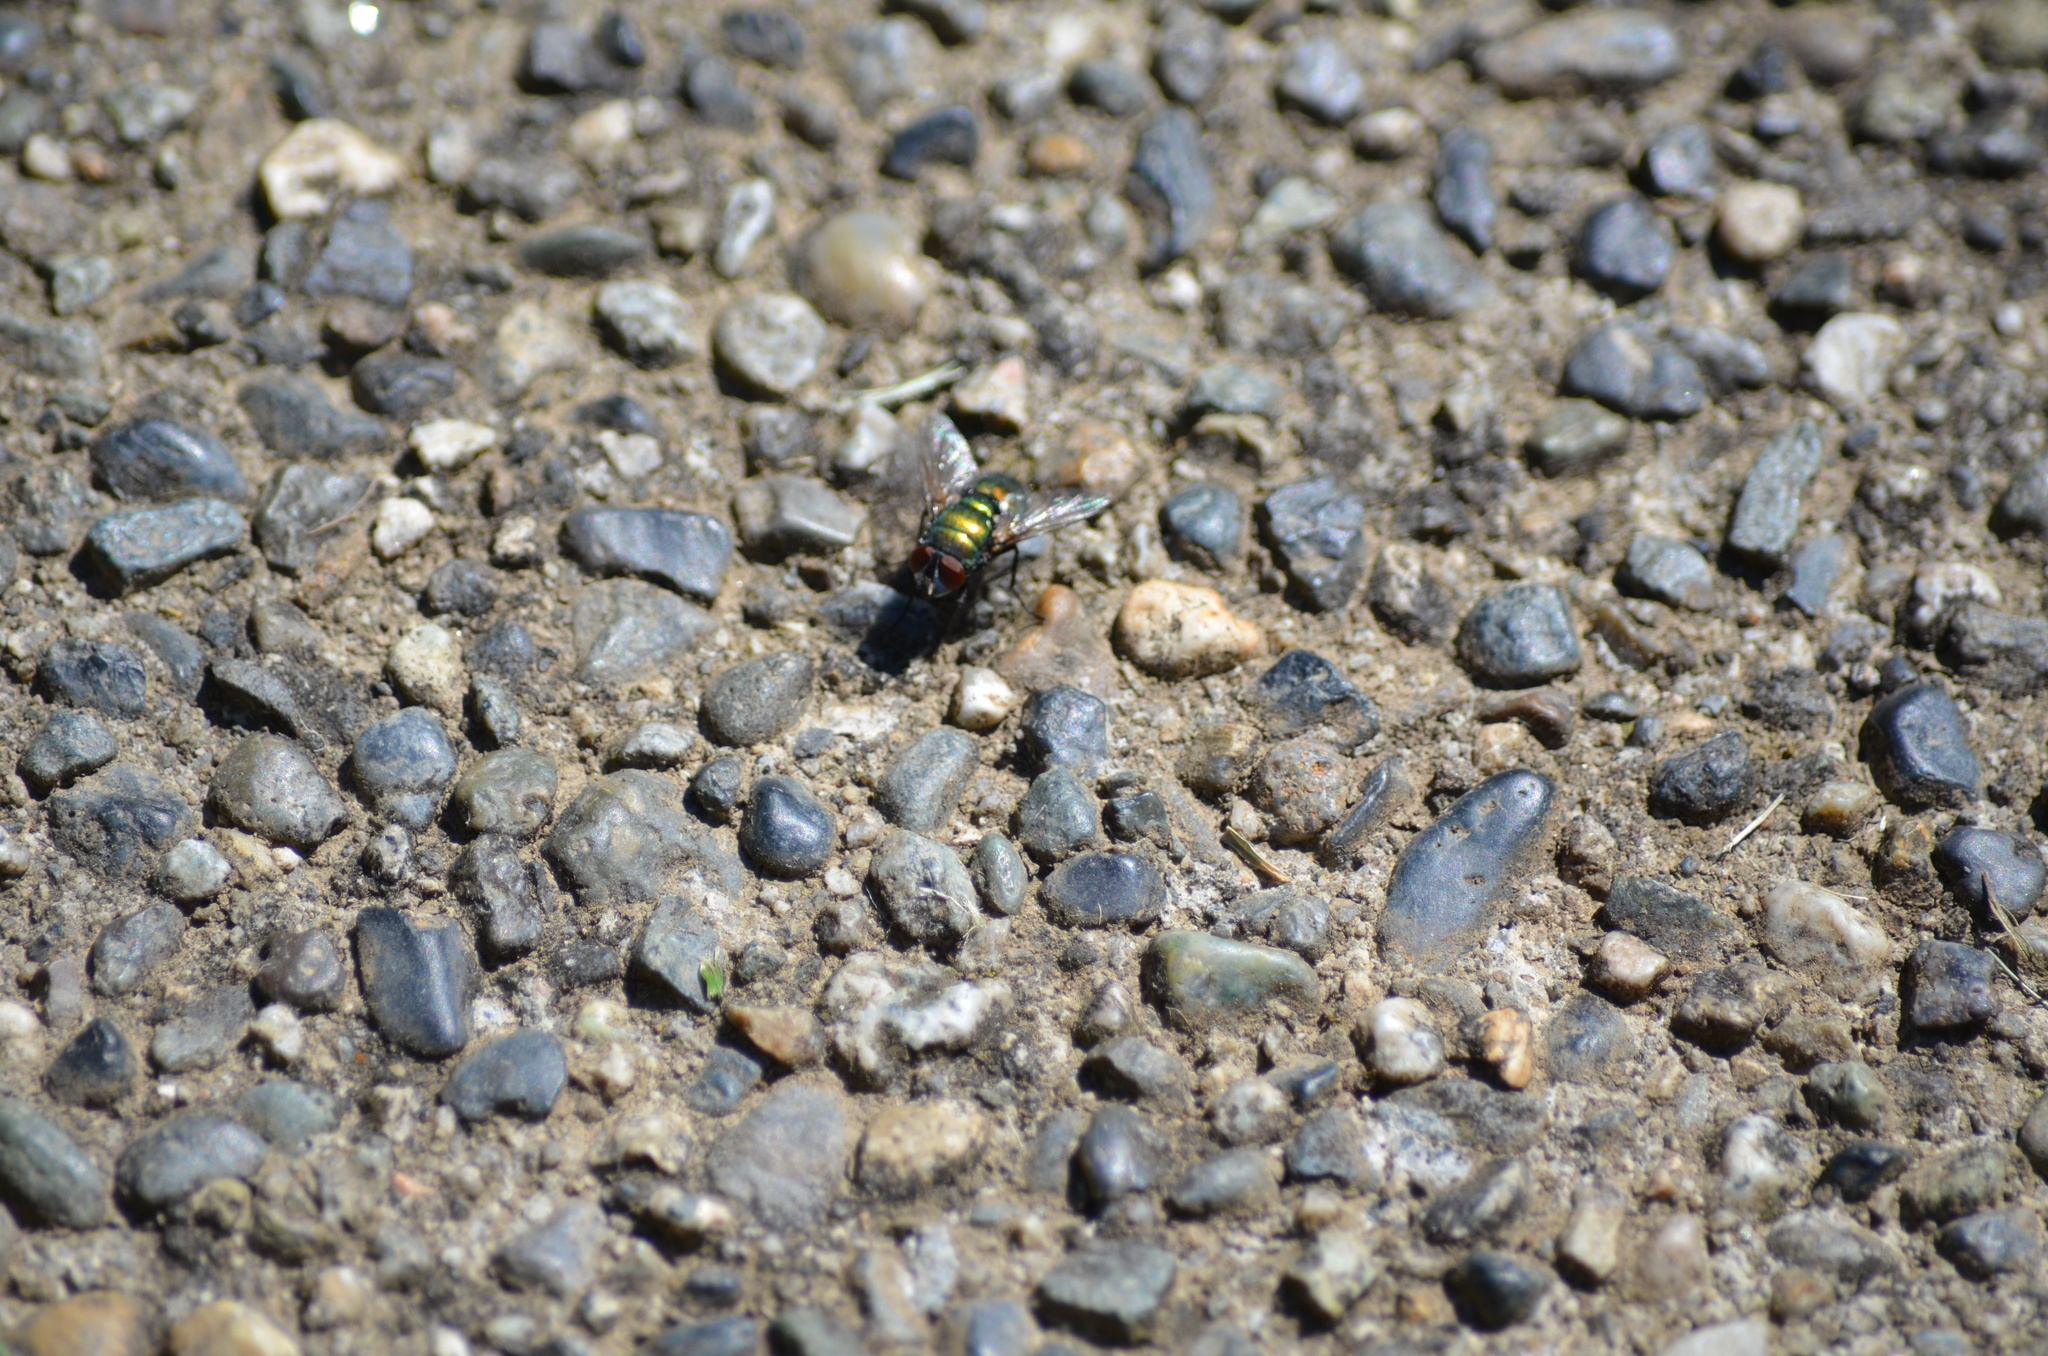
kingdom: Animalia
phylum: Arthropoda
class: Insecta
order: Diptera
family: Calliphoridae
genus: Lucilia
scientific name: Lucilia sericata
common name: Blow fly
